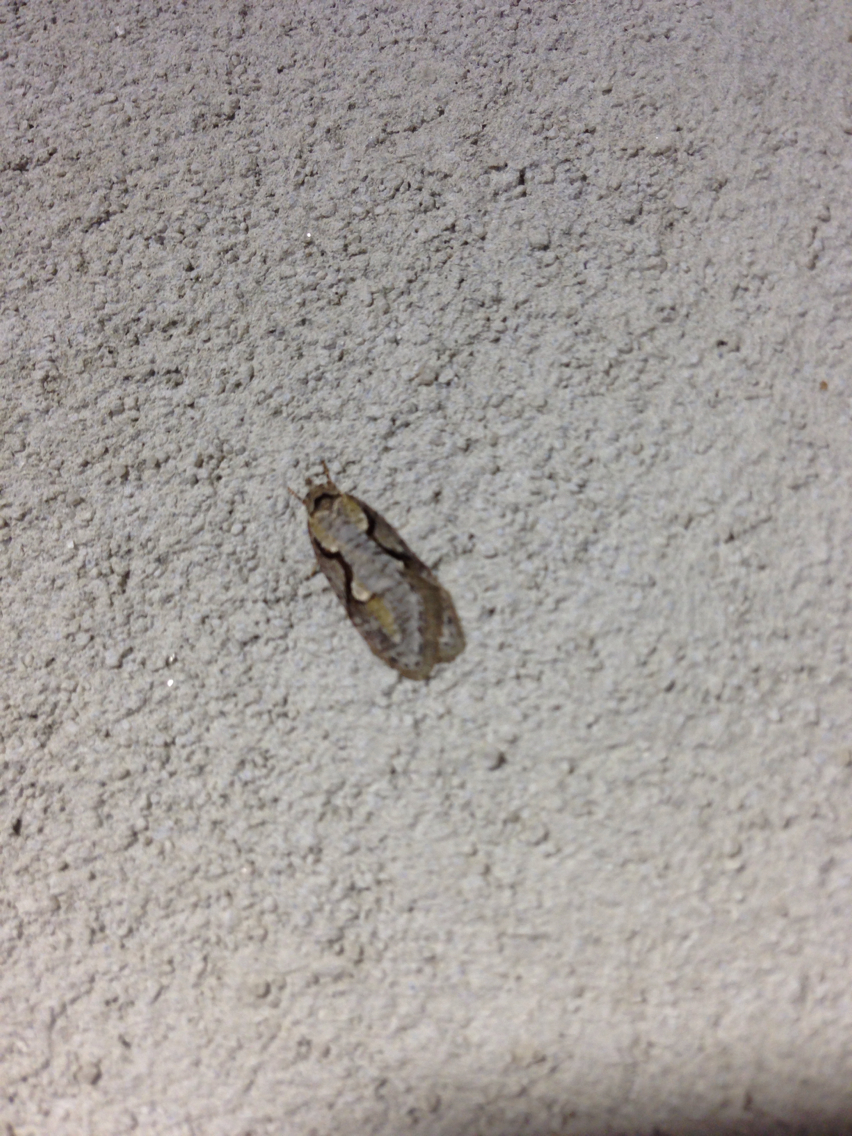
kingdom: Animalia
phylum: Arthropoda
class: Insecta
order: Lepidoptera
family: Depressariidae
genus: Semioscopis
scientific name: Semioscopis packardella
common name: Packard's concealer moth
